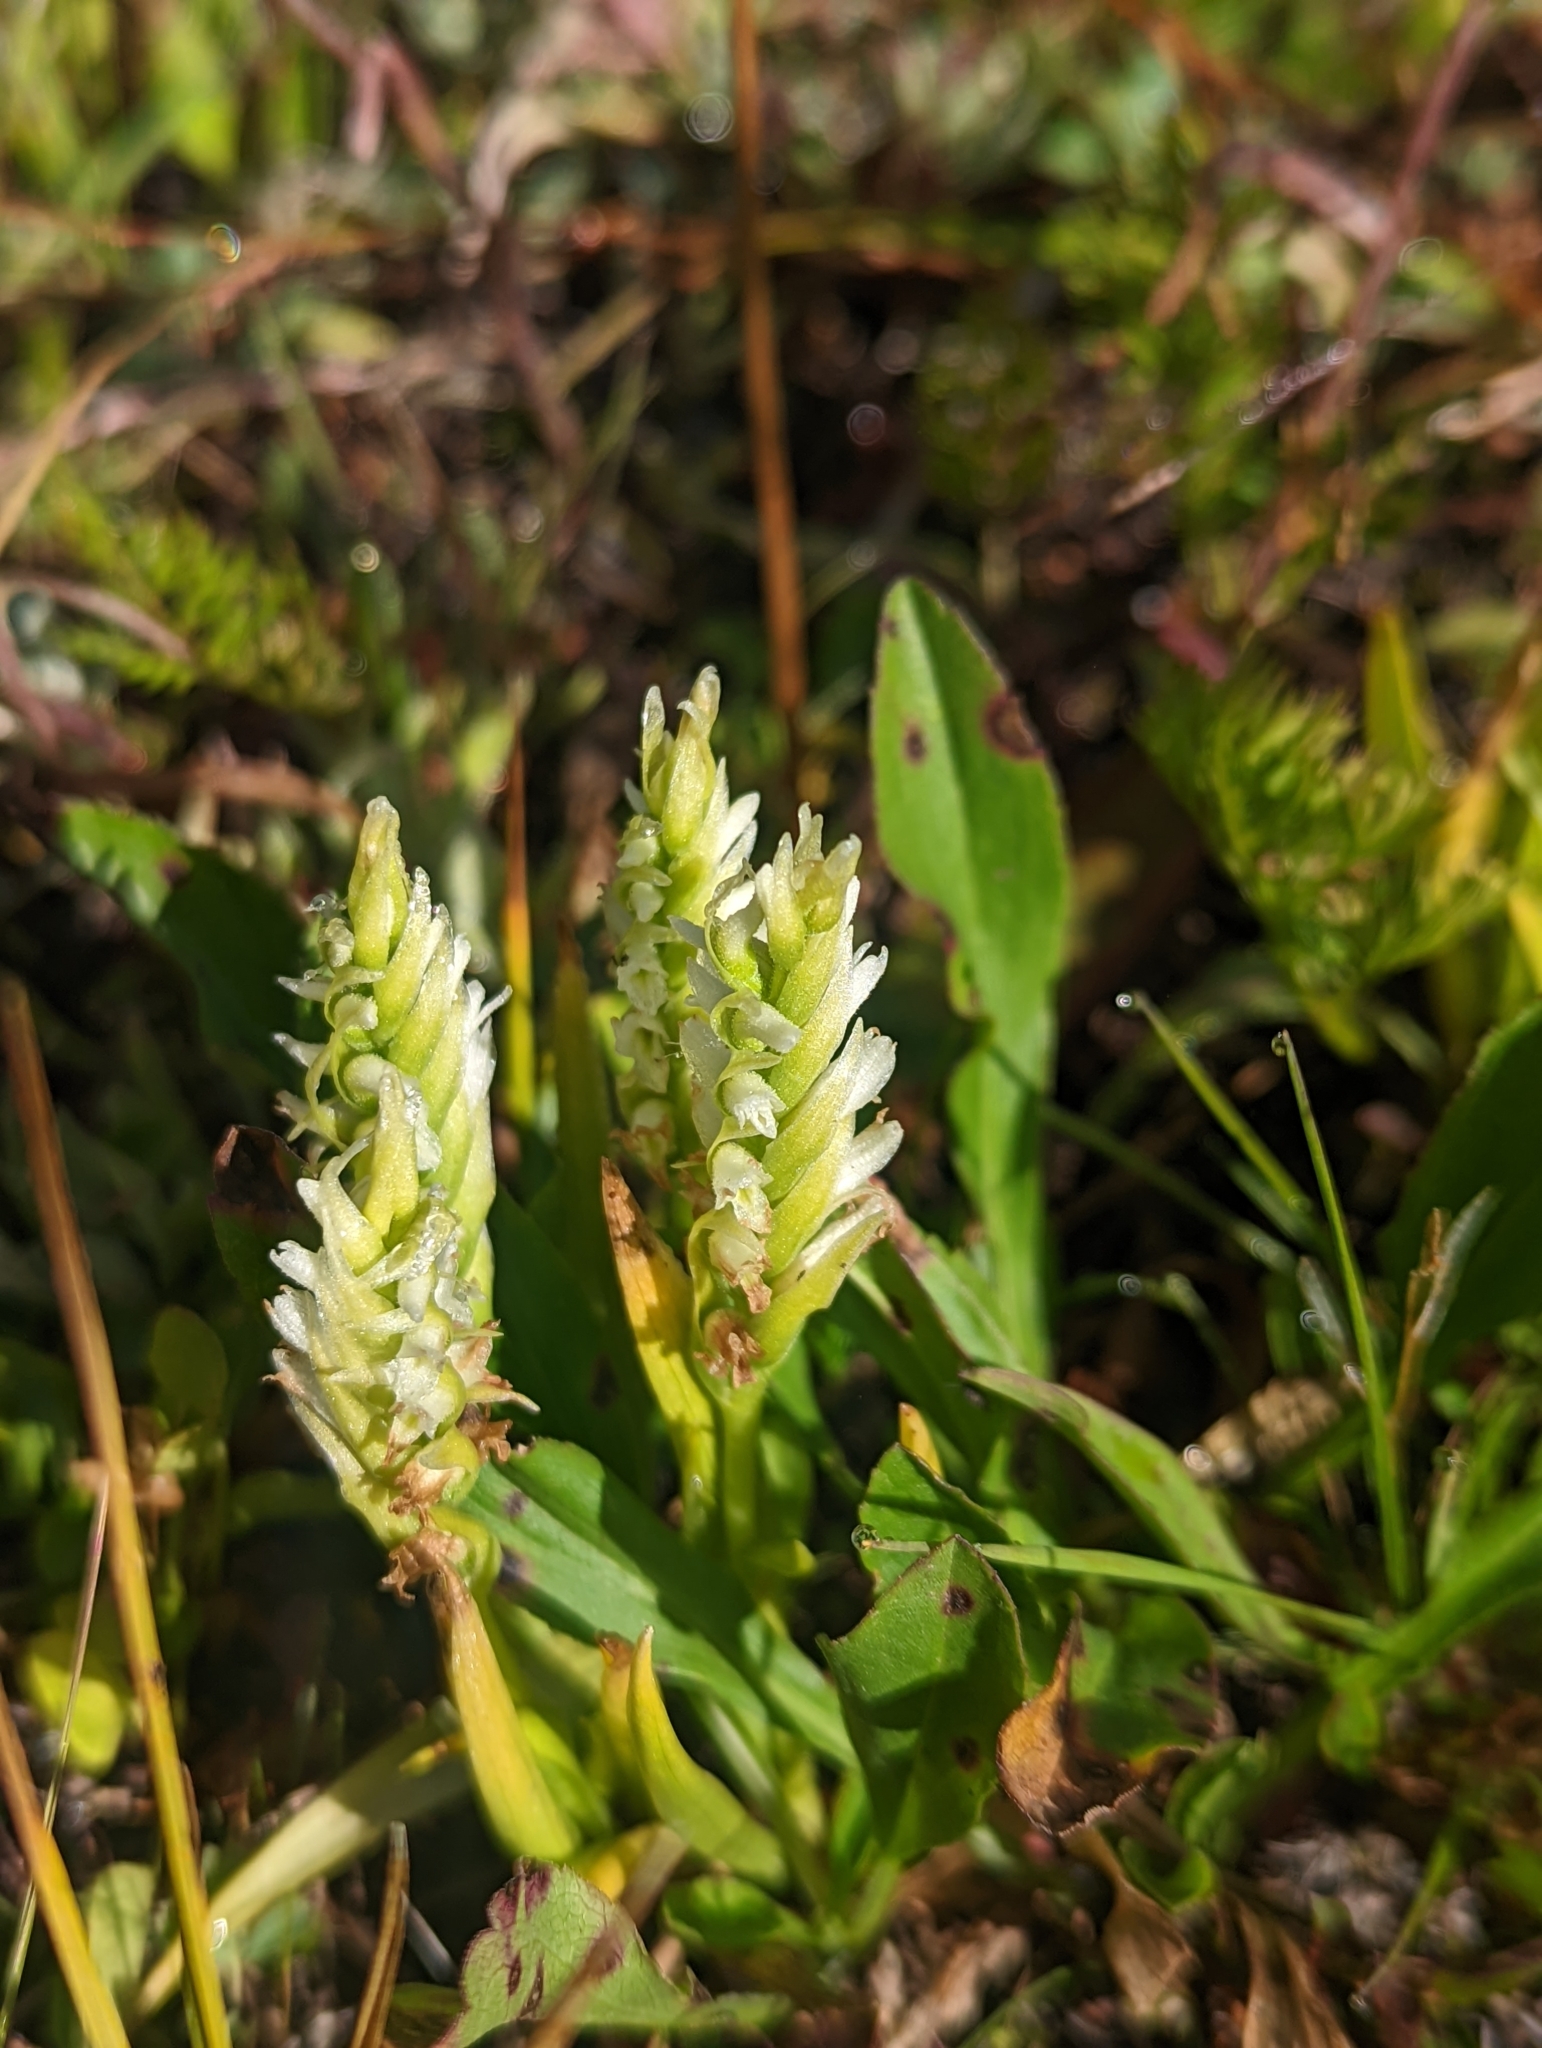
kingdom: Plantae
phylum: Tracheophyta
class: Liliopsida
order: Asparagales
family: Orchidaceae
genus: Spiranthes
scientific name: Spiranthes romanzoffiana
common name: Irish lady's-tresses
